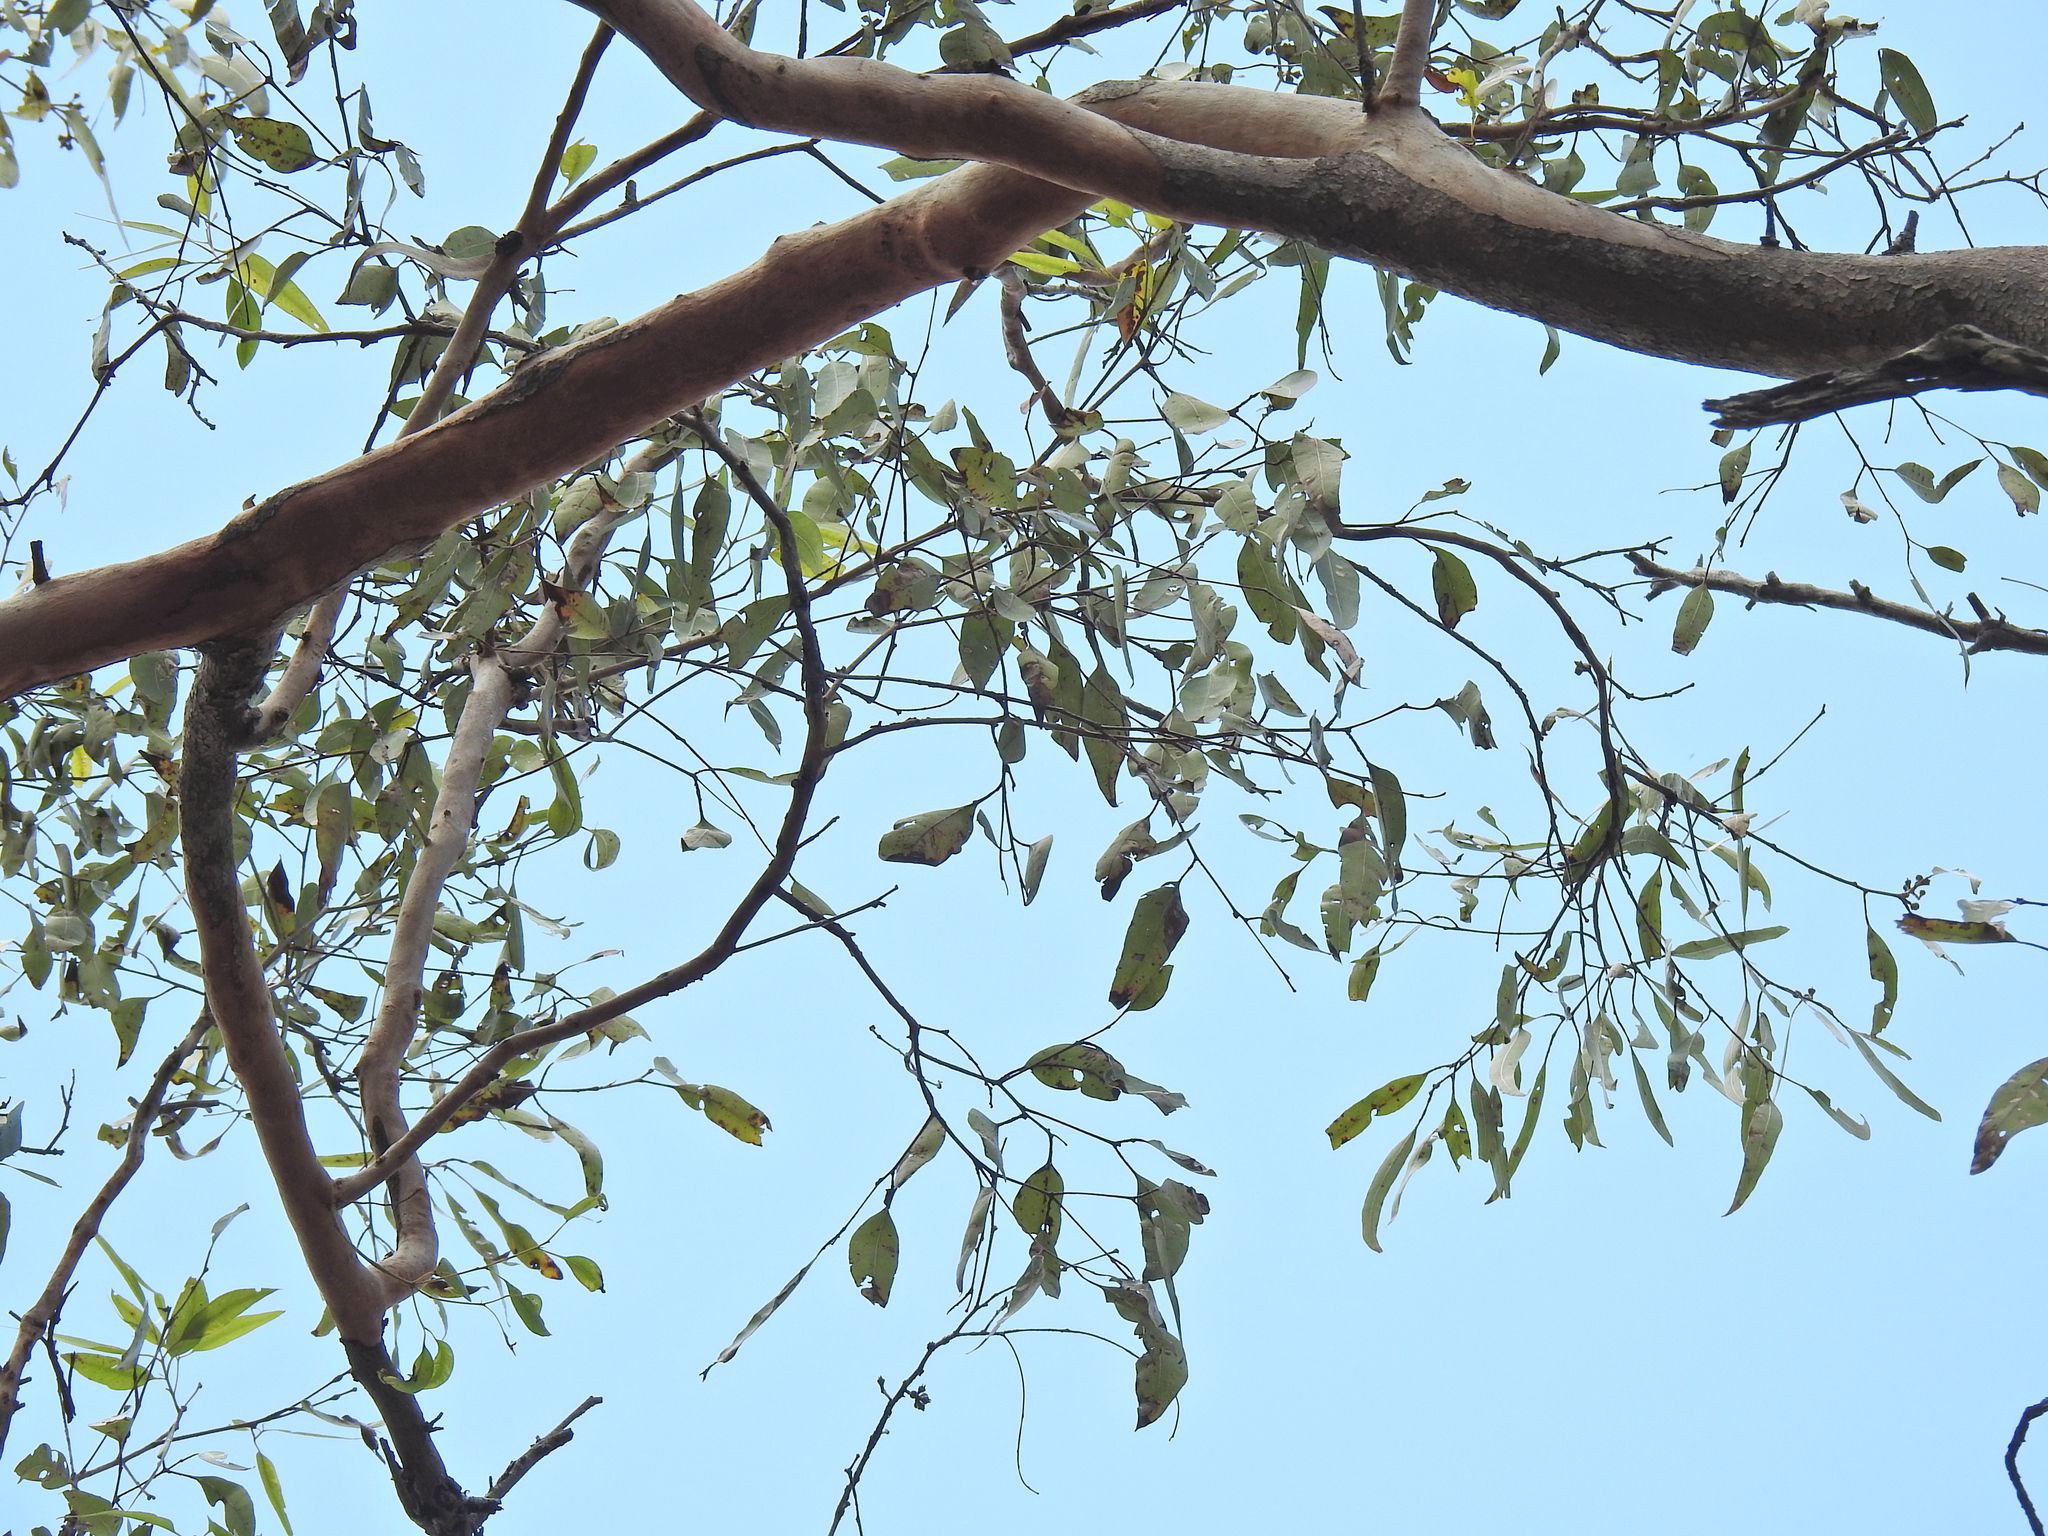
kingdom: Plantae
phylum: Tracheophyta
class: Magnoliopsida
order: Myrtales
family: Myrtaceae
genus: Eucalyptus
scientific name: Eucalyptus major
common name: Queensland grey gum
